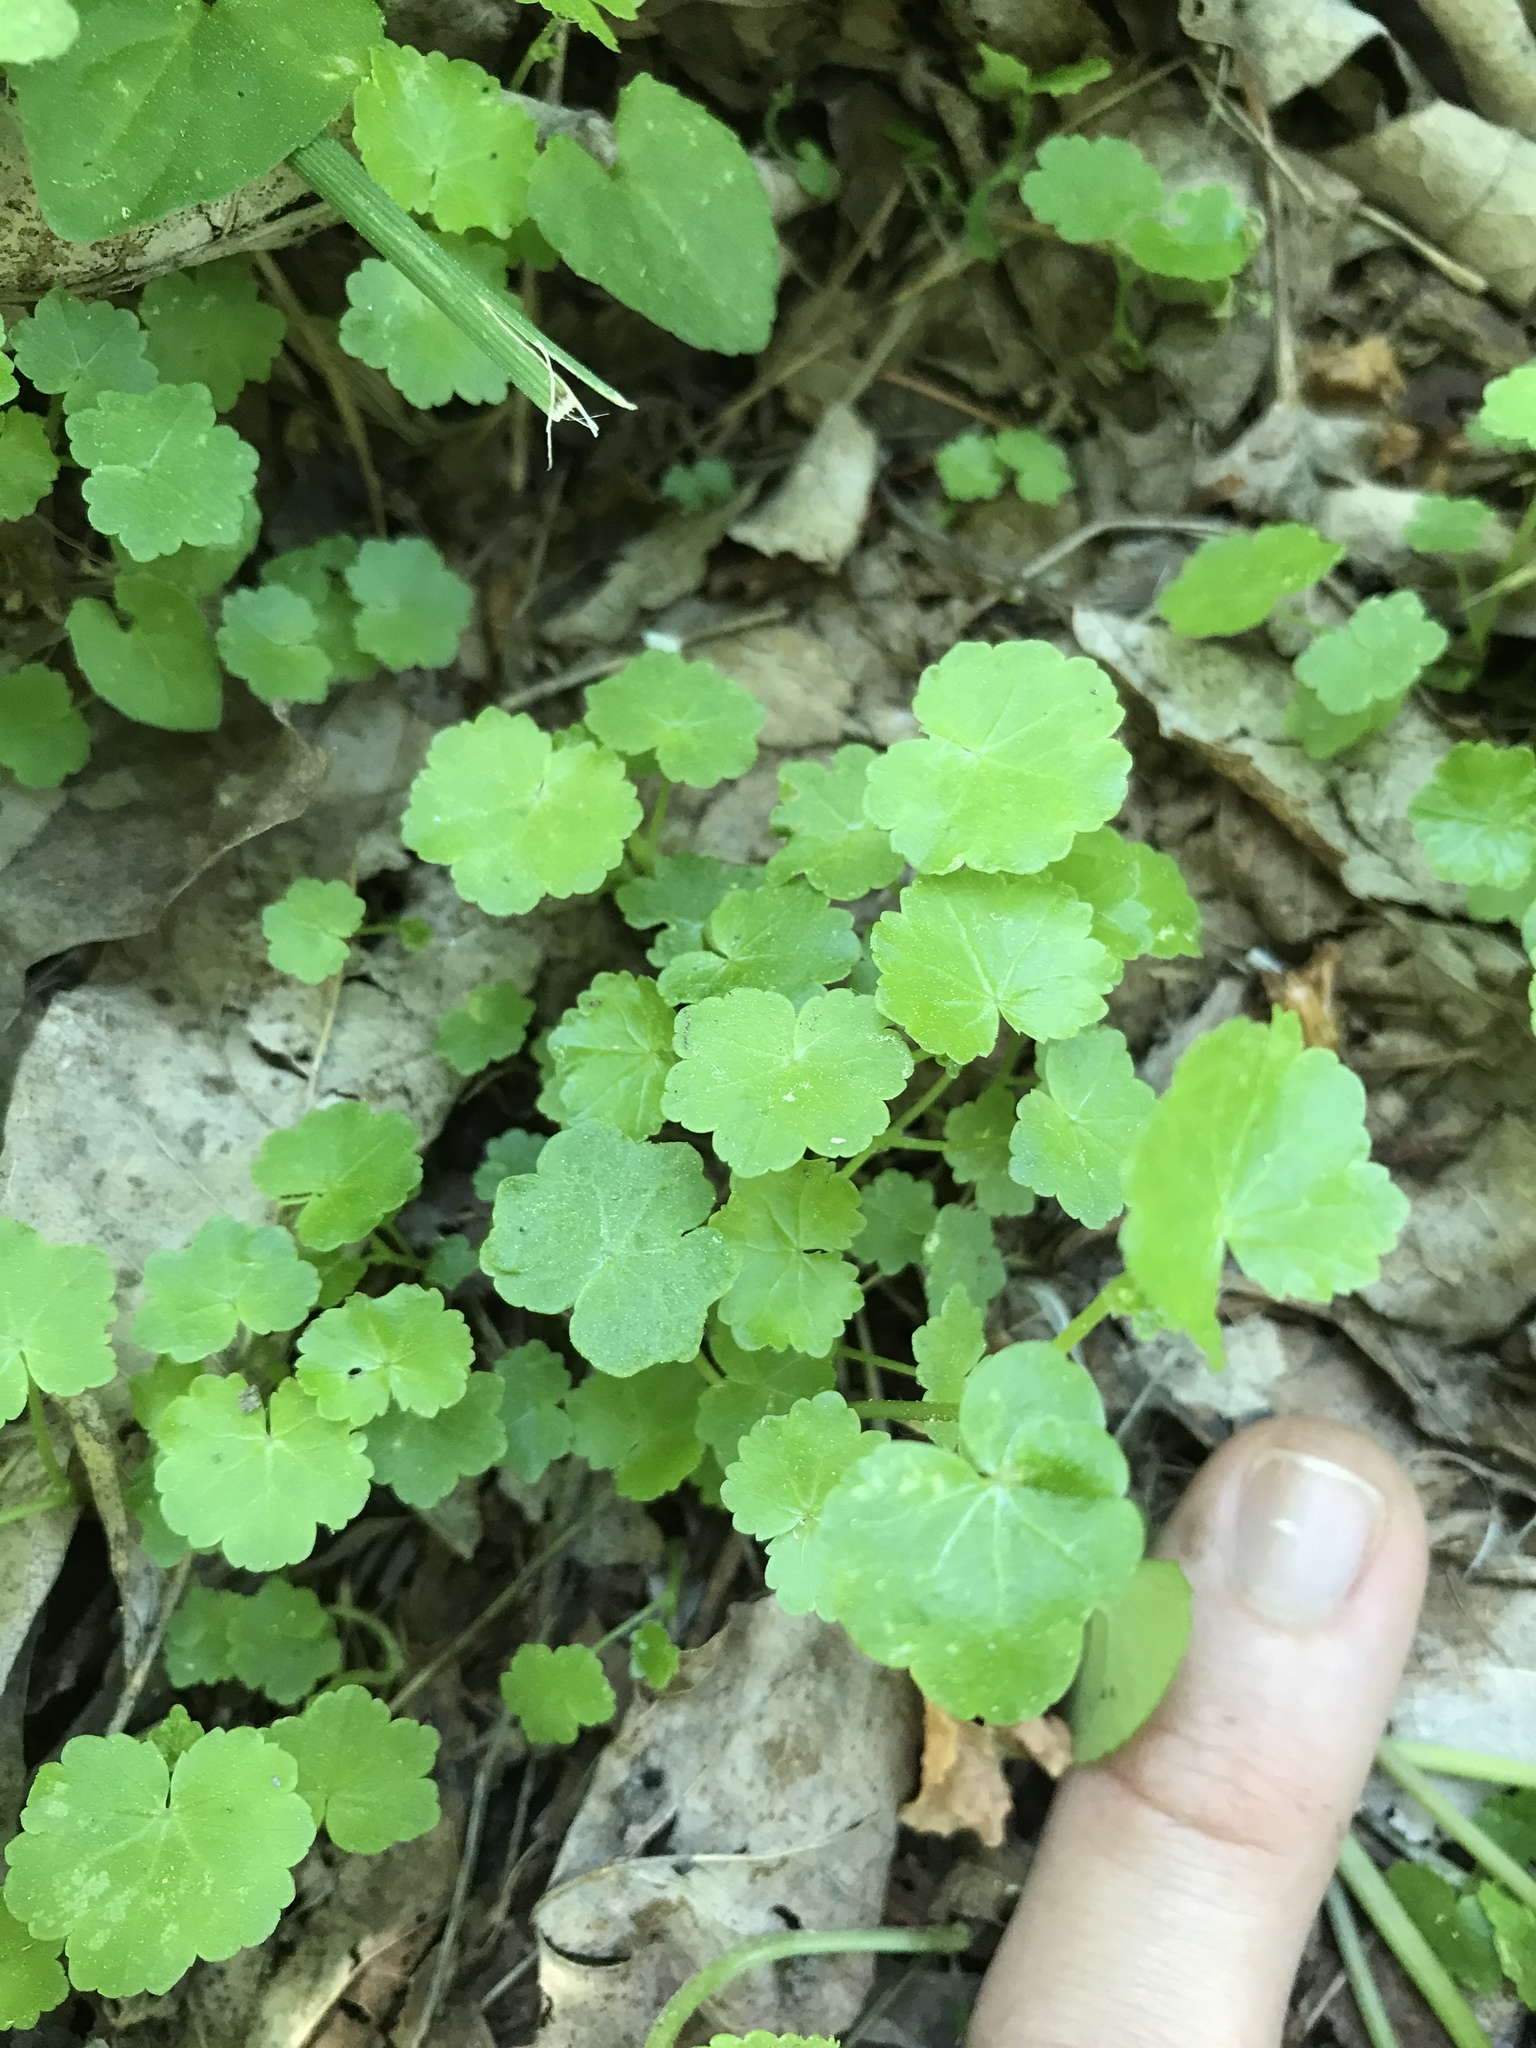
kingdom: Plantae
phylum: Tracheophyta
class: Magnoliopsida
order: Apiales
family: Araliaceae
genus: Hydrocotyle
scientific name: Hydrocotyle americana
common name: American water-pennywort
